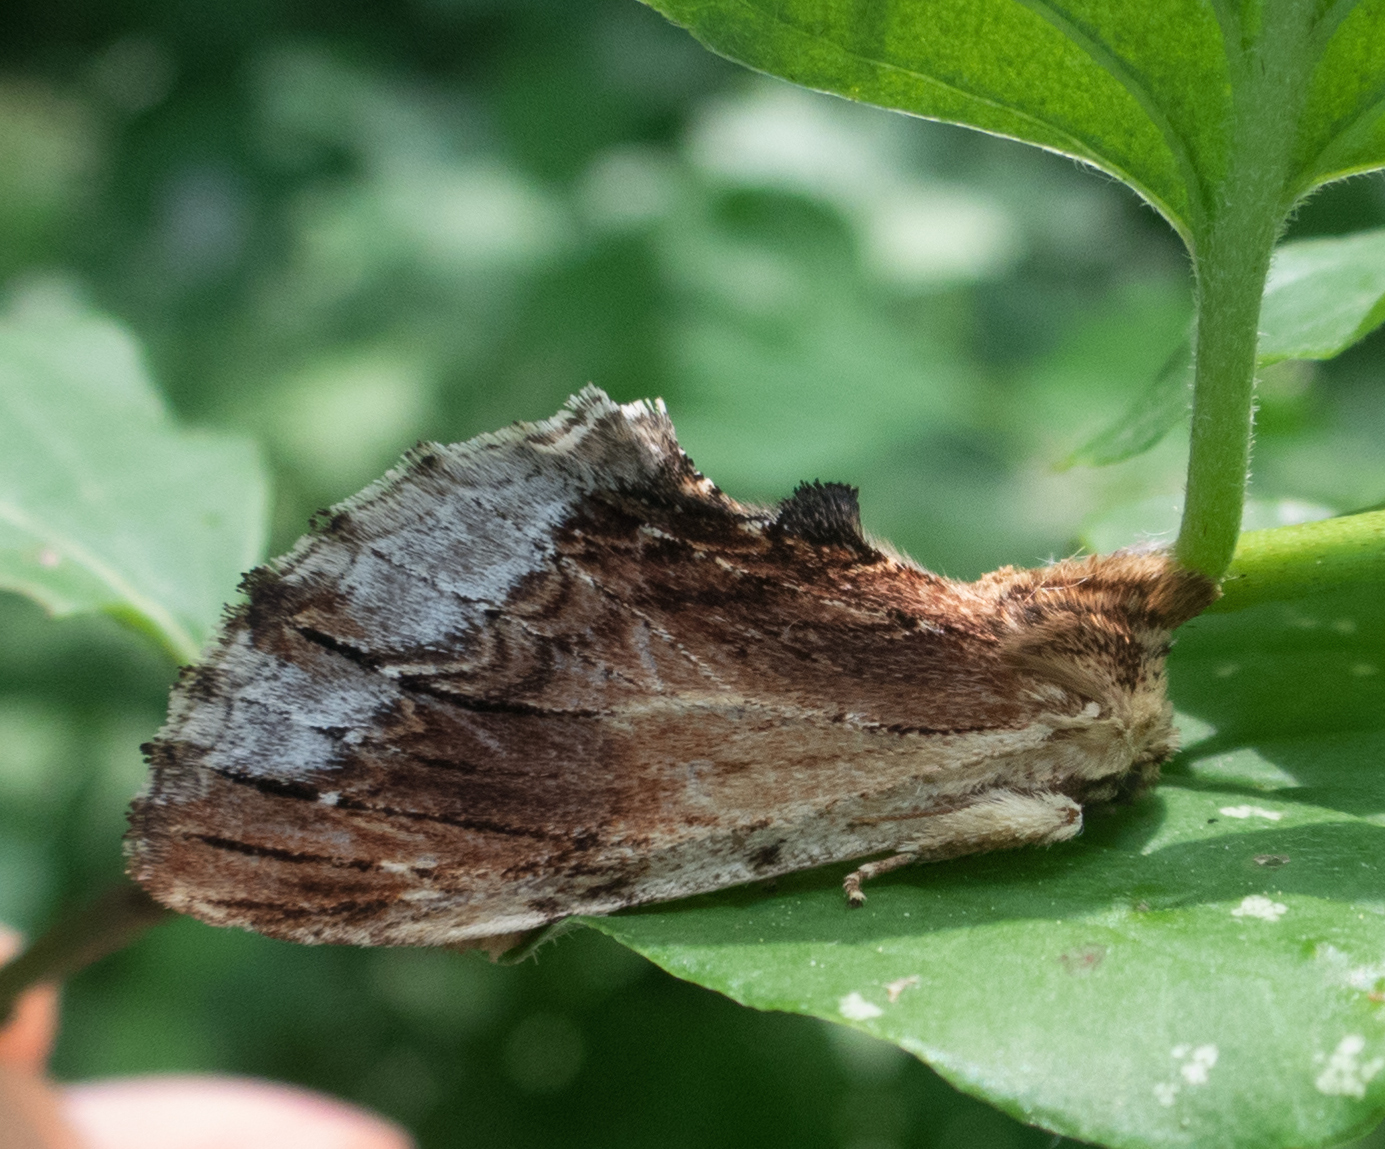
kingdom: Animalia
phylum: Arthropoda
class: Insecta
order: Lepidoptera
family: Notodontidae
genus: Ptilodon
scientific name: Ptilodon cucullina
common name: Maple prominent
